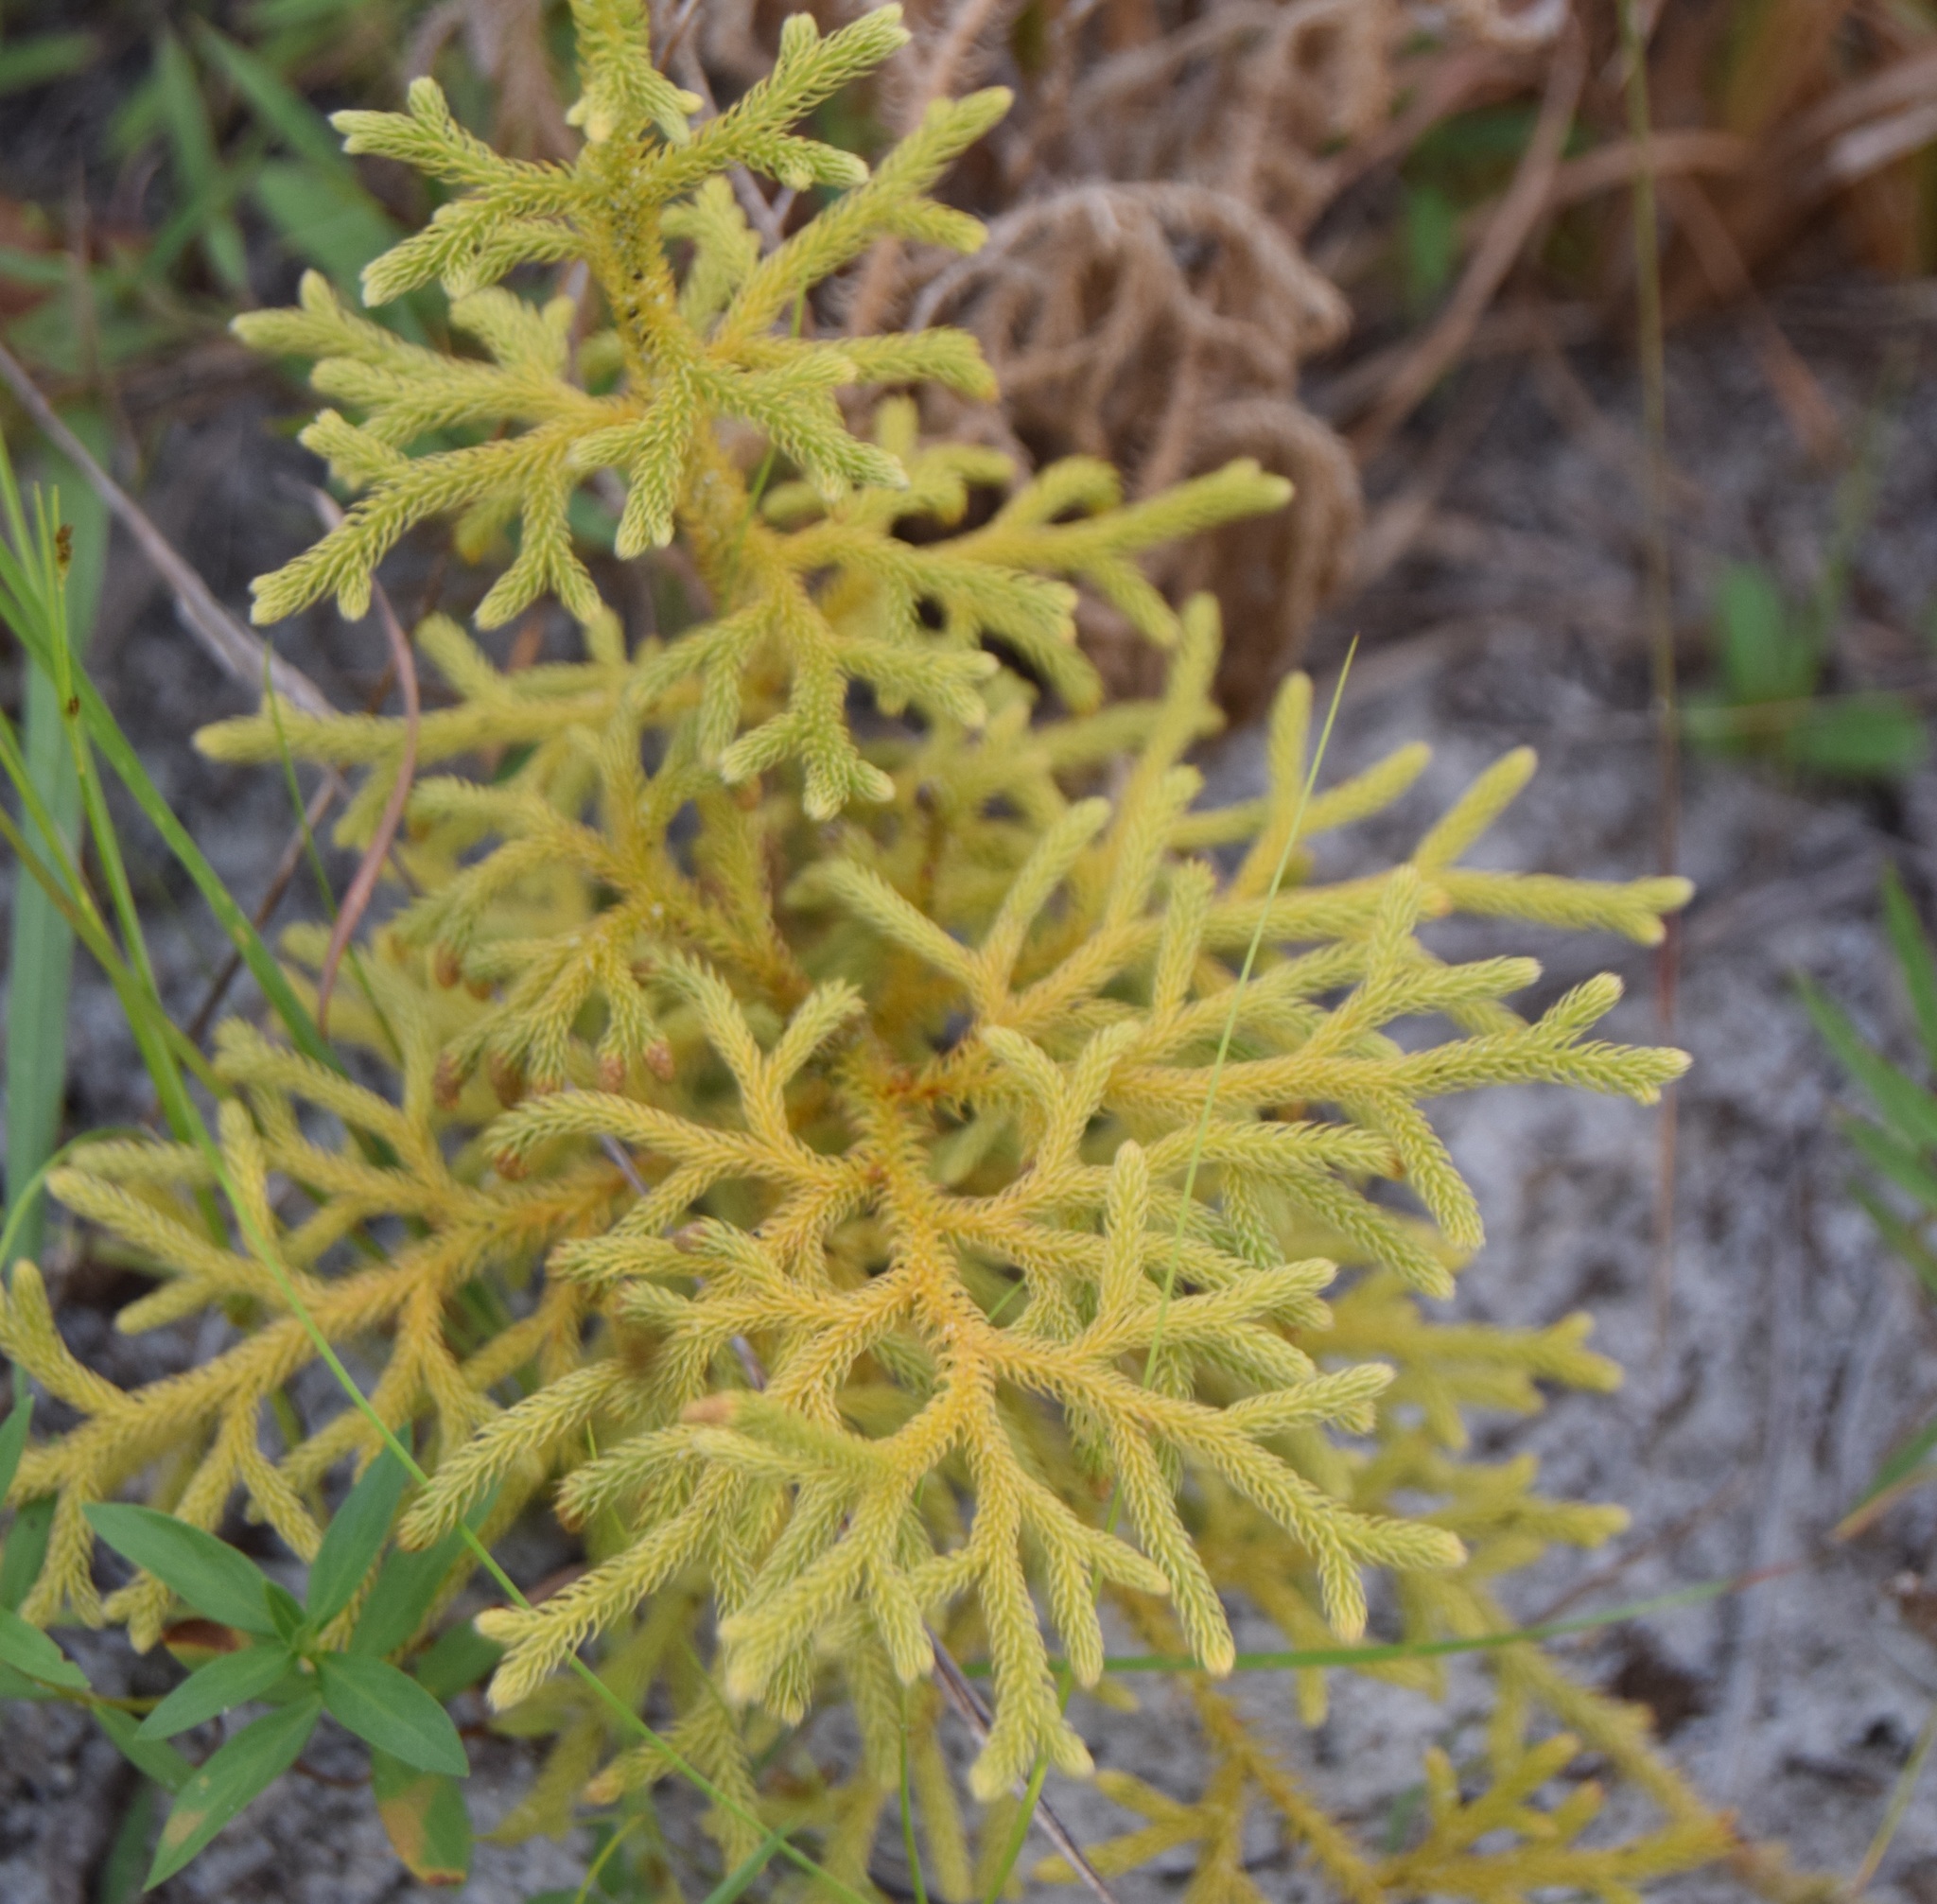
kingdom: Plantae
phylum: Tracheophyta
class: Lycopodiopsida
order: Lycopodiales
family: Lycopodiaceae
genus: Palhinhaea
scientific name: Palhinhaea cernua
